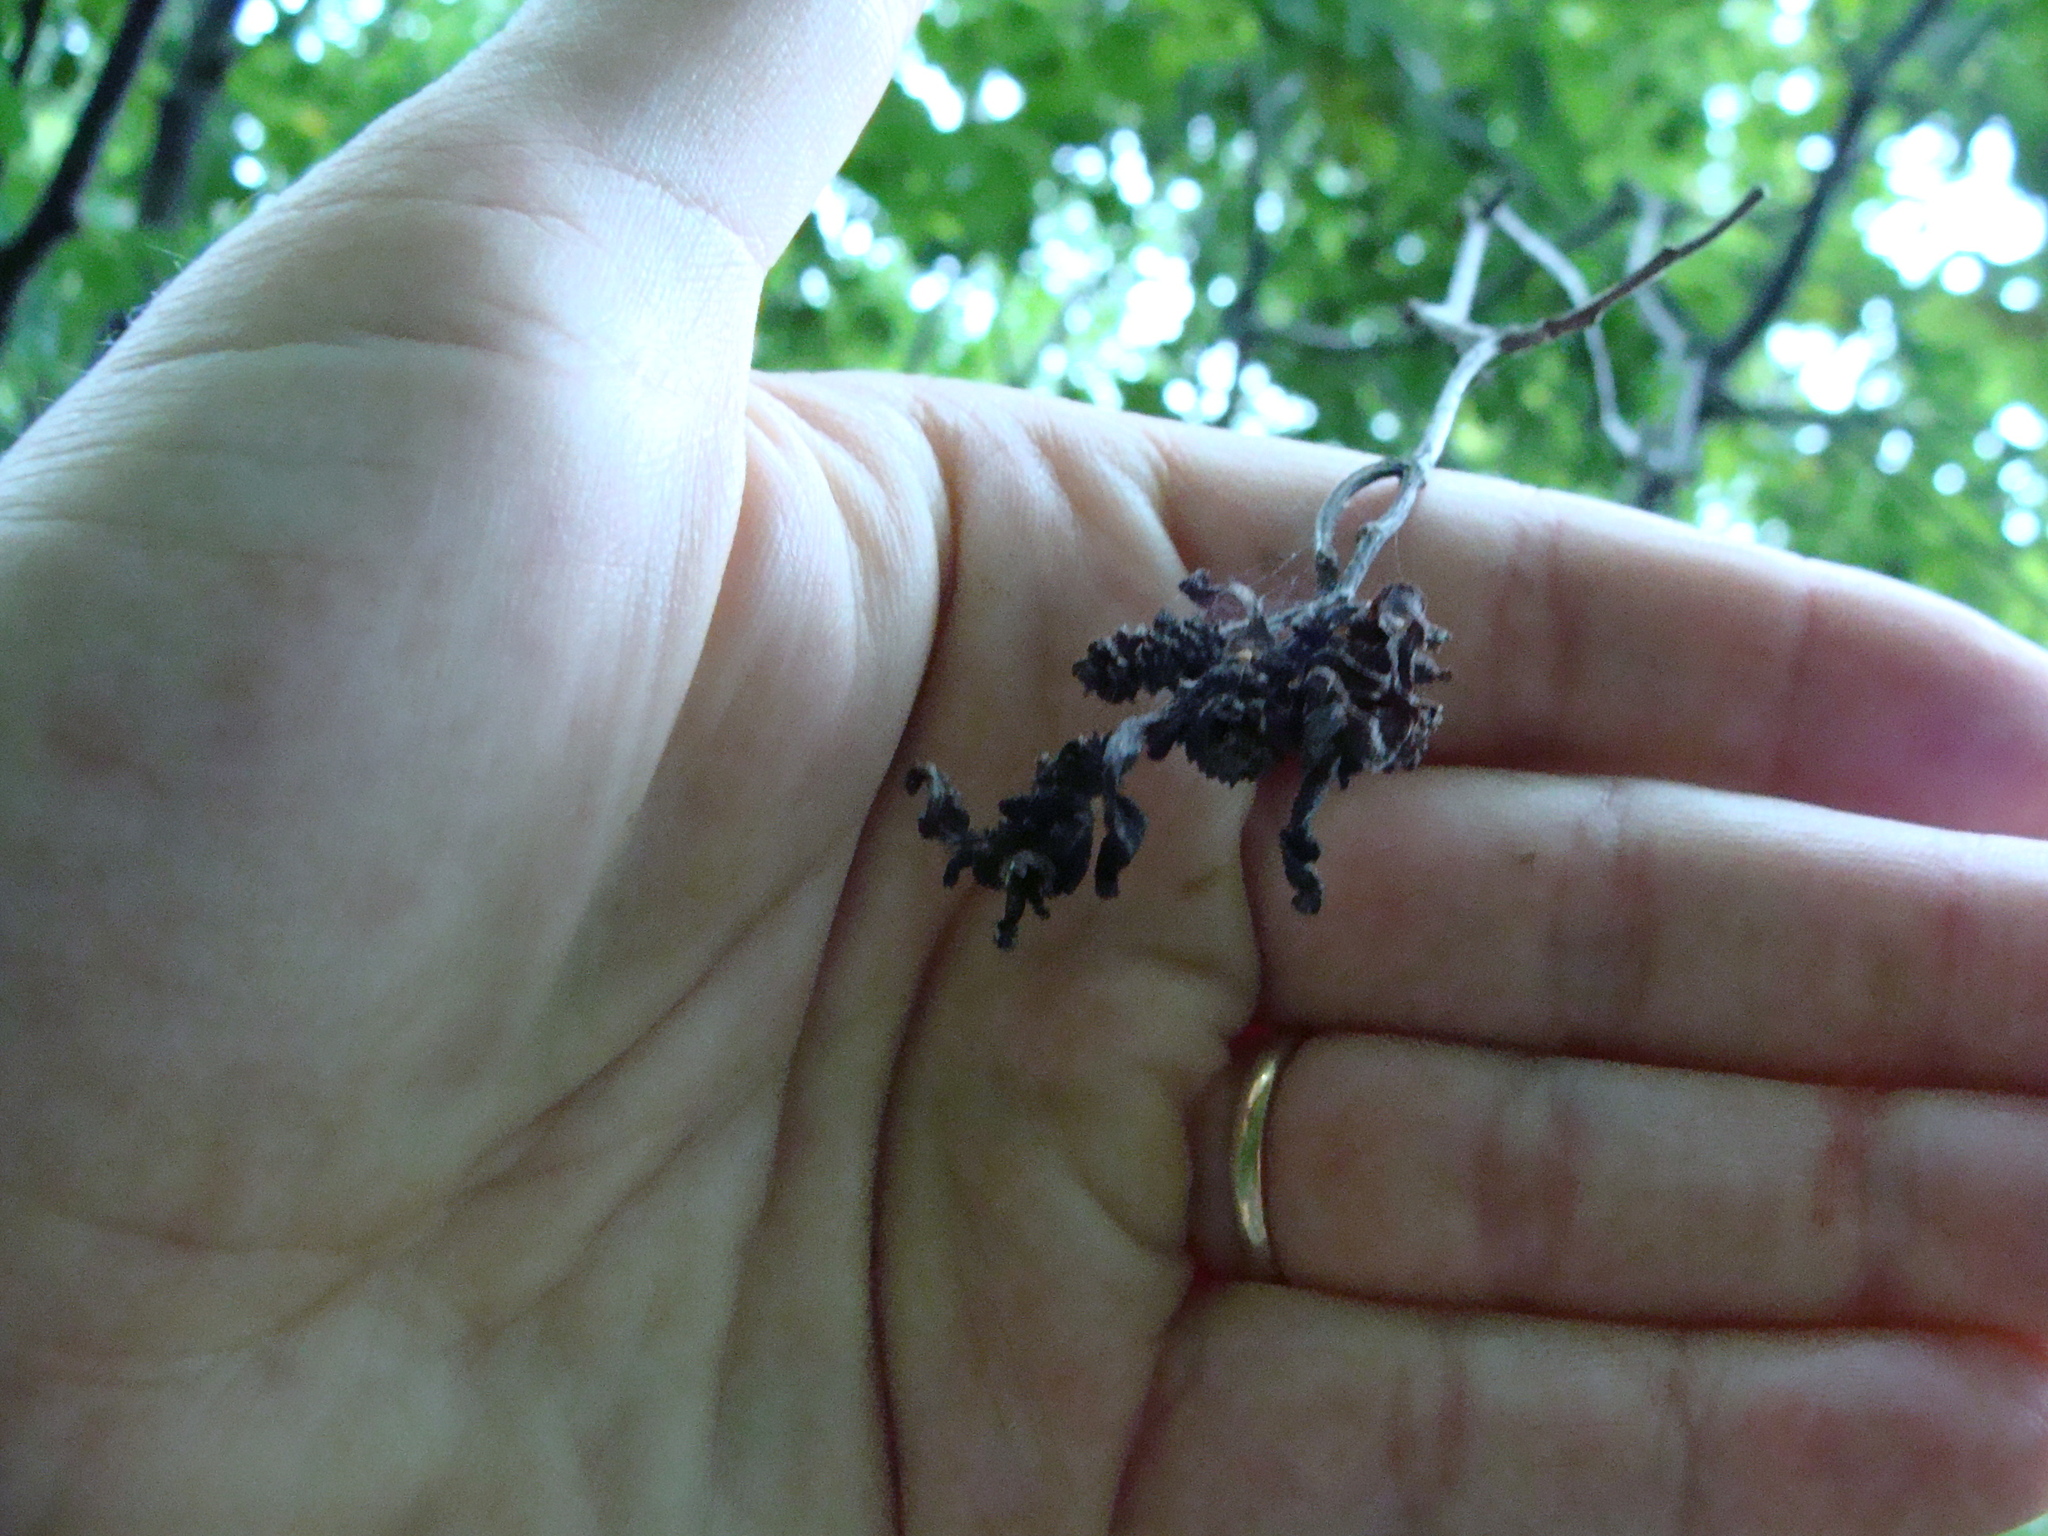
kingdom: Fungi
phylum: Ascomycota
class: Taphrinomycetes
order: Taphrinales
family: Taphrinaceae
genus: Taphrina
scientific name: Taphrina robinsoniana
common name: Eastern american alder tongue gall fungus
